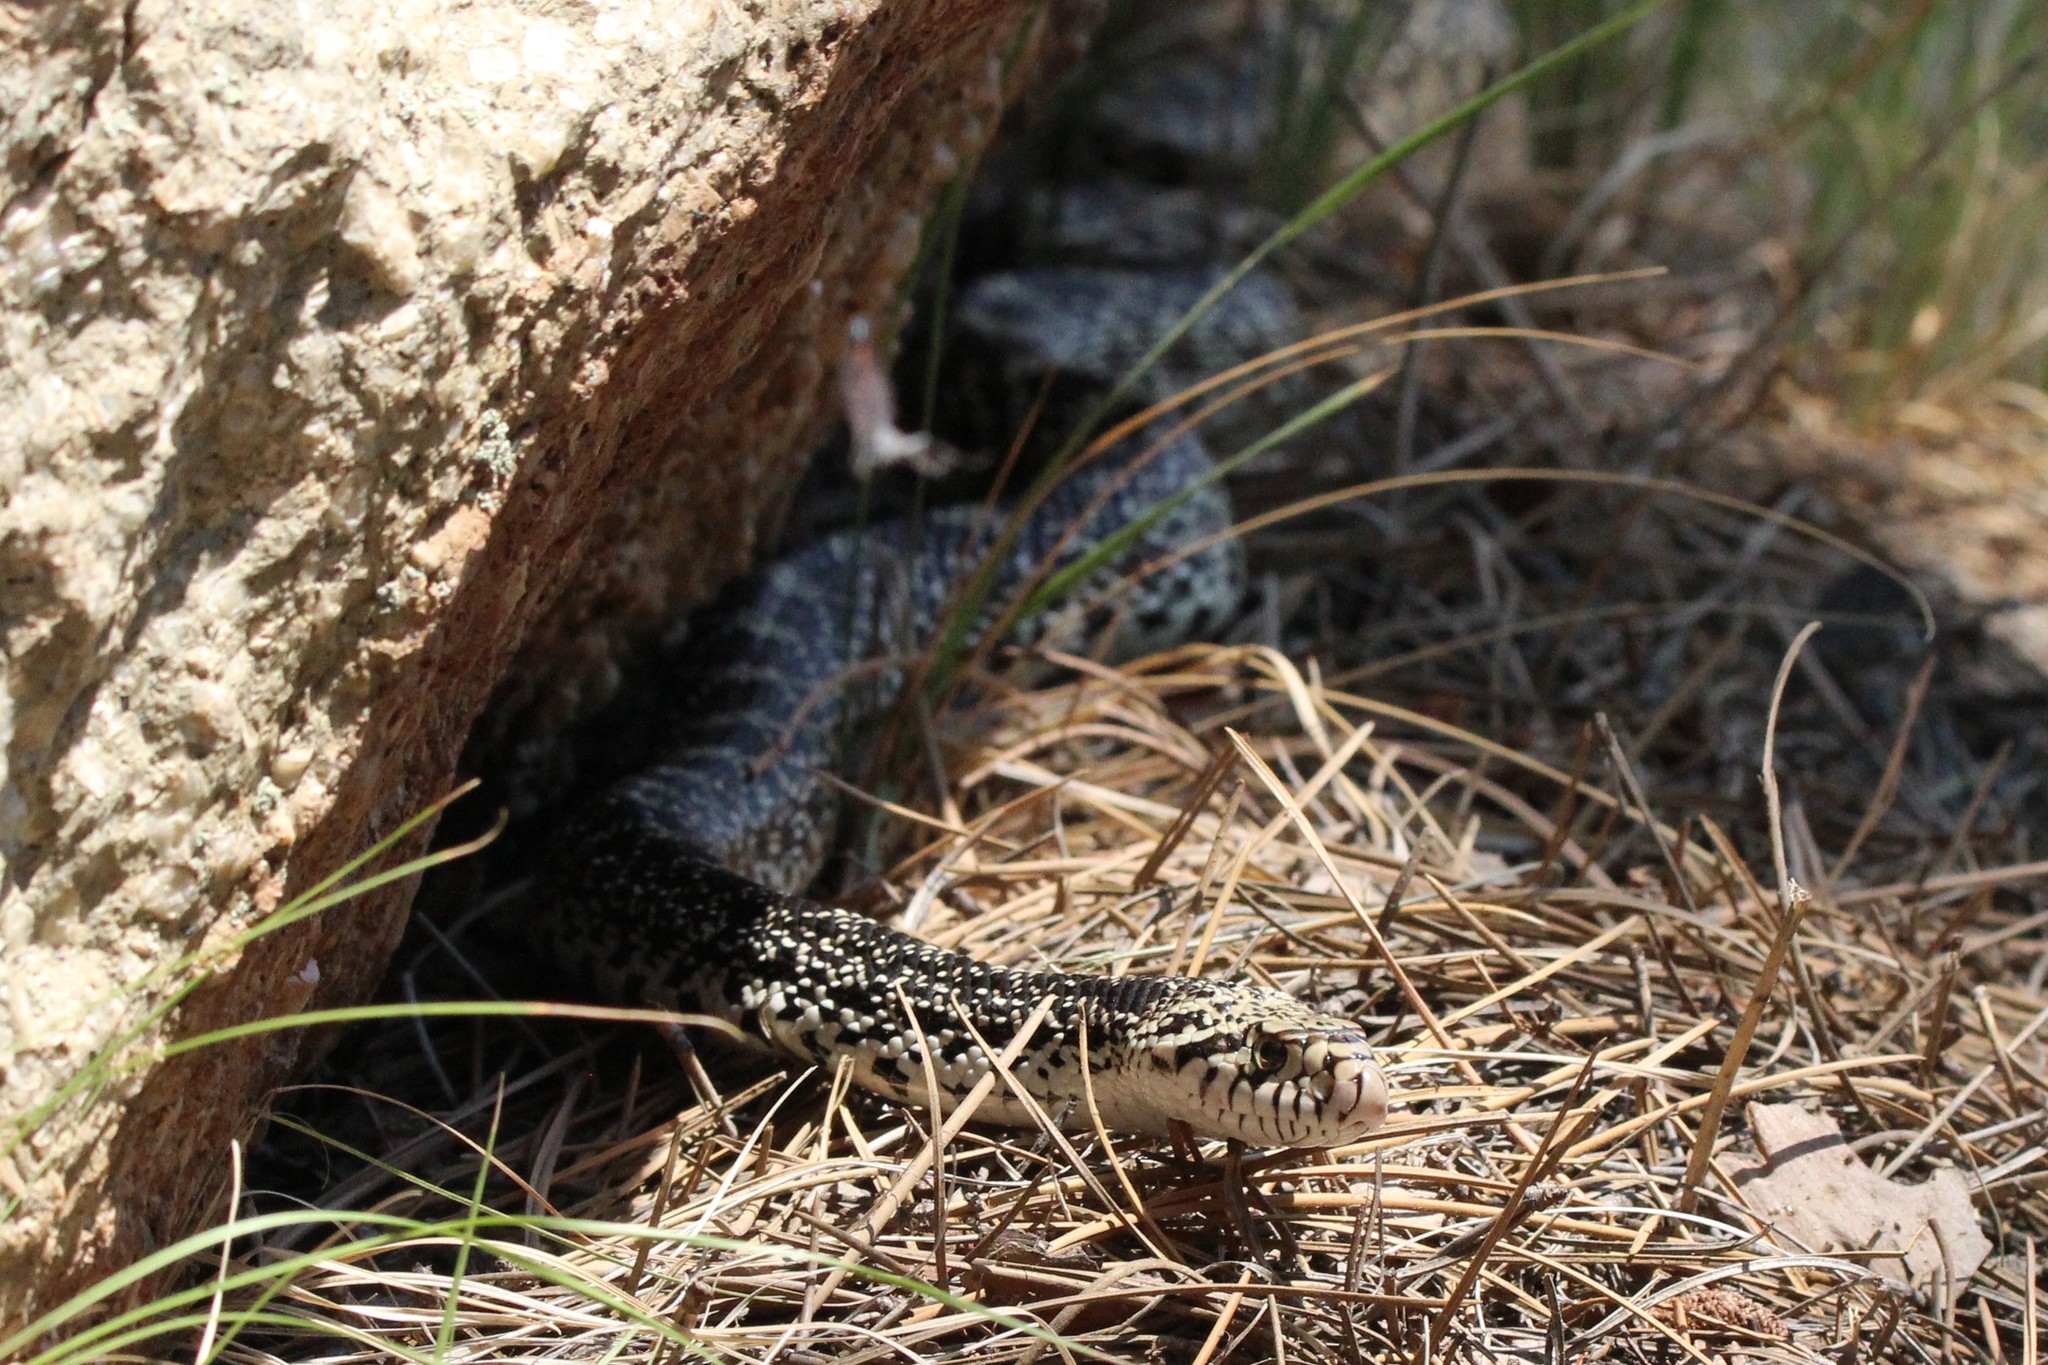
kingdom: Animalia
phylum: Chordata
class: Squamata
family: Colubridae
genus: Pituophis
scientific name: Pituophis catenifer
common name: Gopher snake
